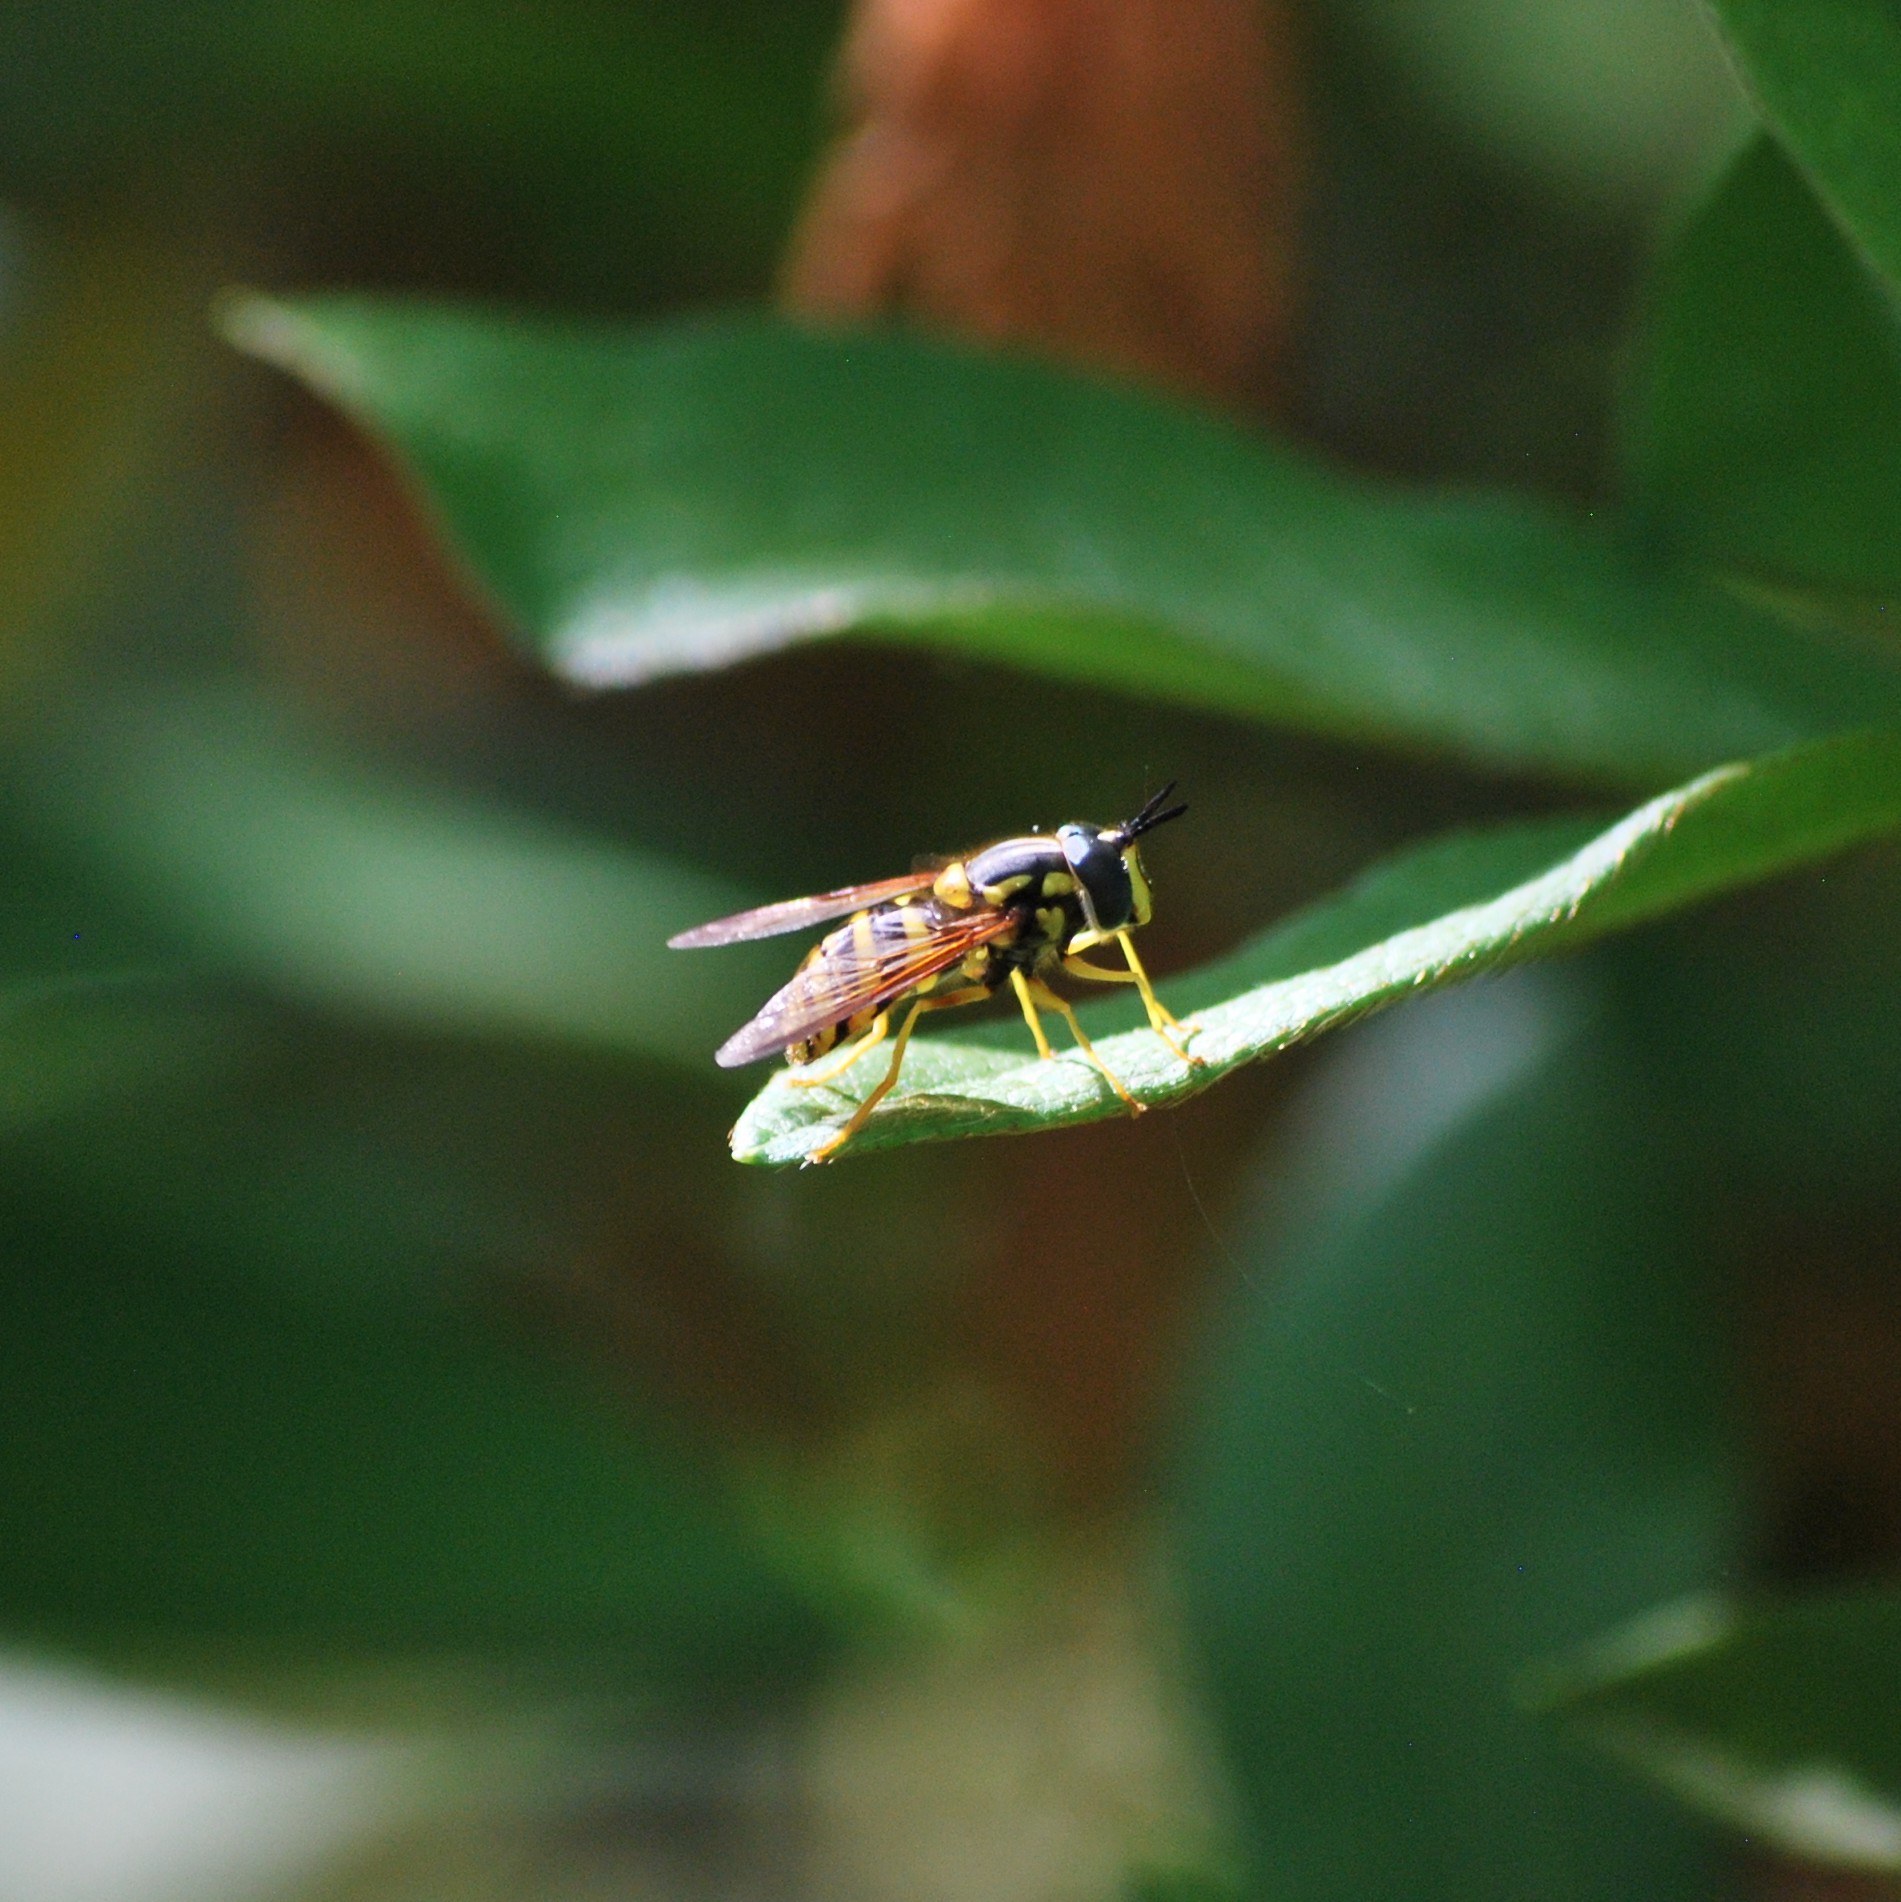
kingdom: Animalia
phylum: Arthropoda
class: Insecta
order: Diptera
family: Syrphidae
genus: Chrysotoxum
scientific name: Chrysotoxum
